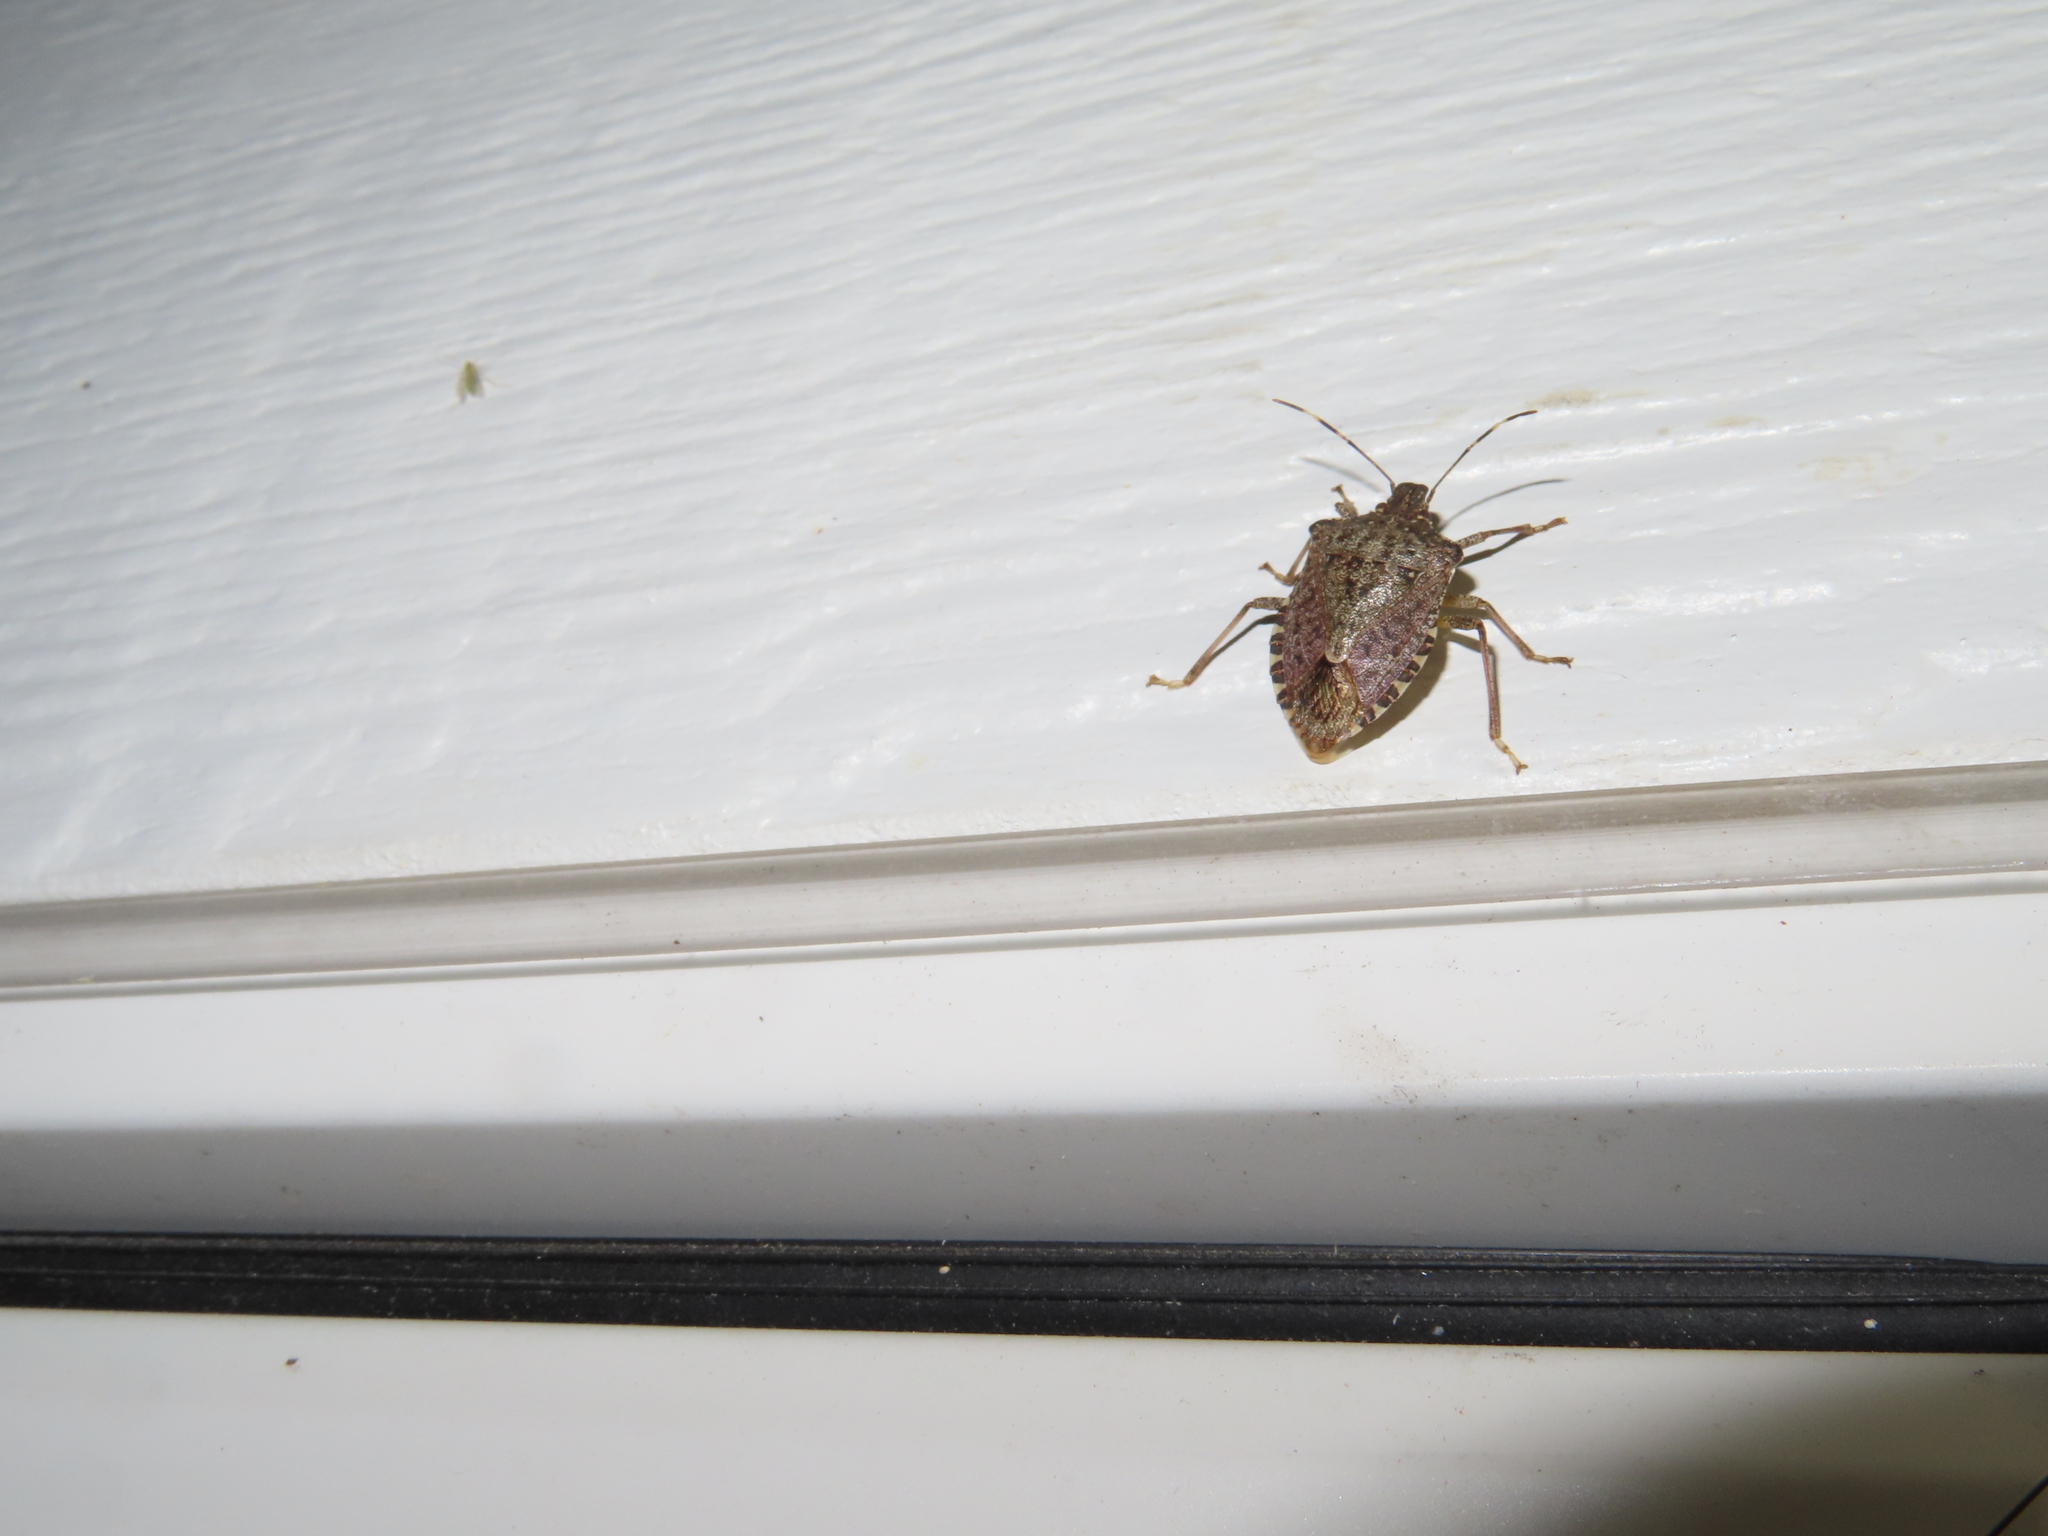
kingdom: Animalia
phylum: Arthropoda
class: Insecta
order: Hemiptera
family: Pentatomidae
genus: Halyomorpha
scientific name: Halyomorpha halys
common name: Brown marmorated stink bug
